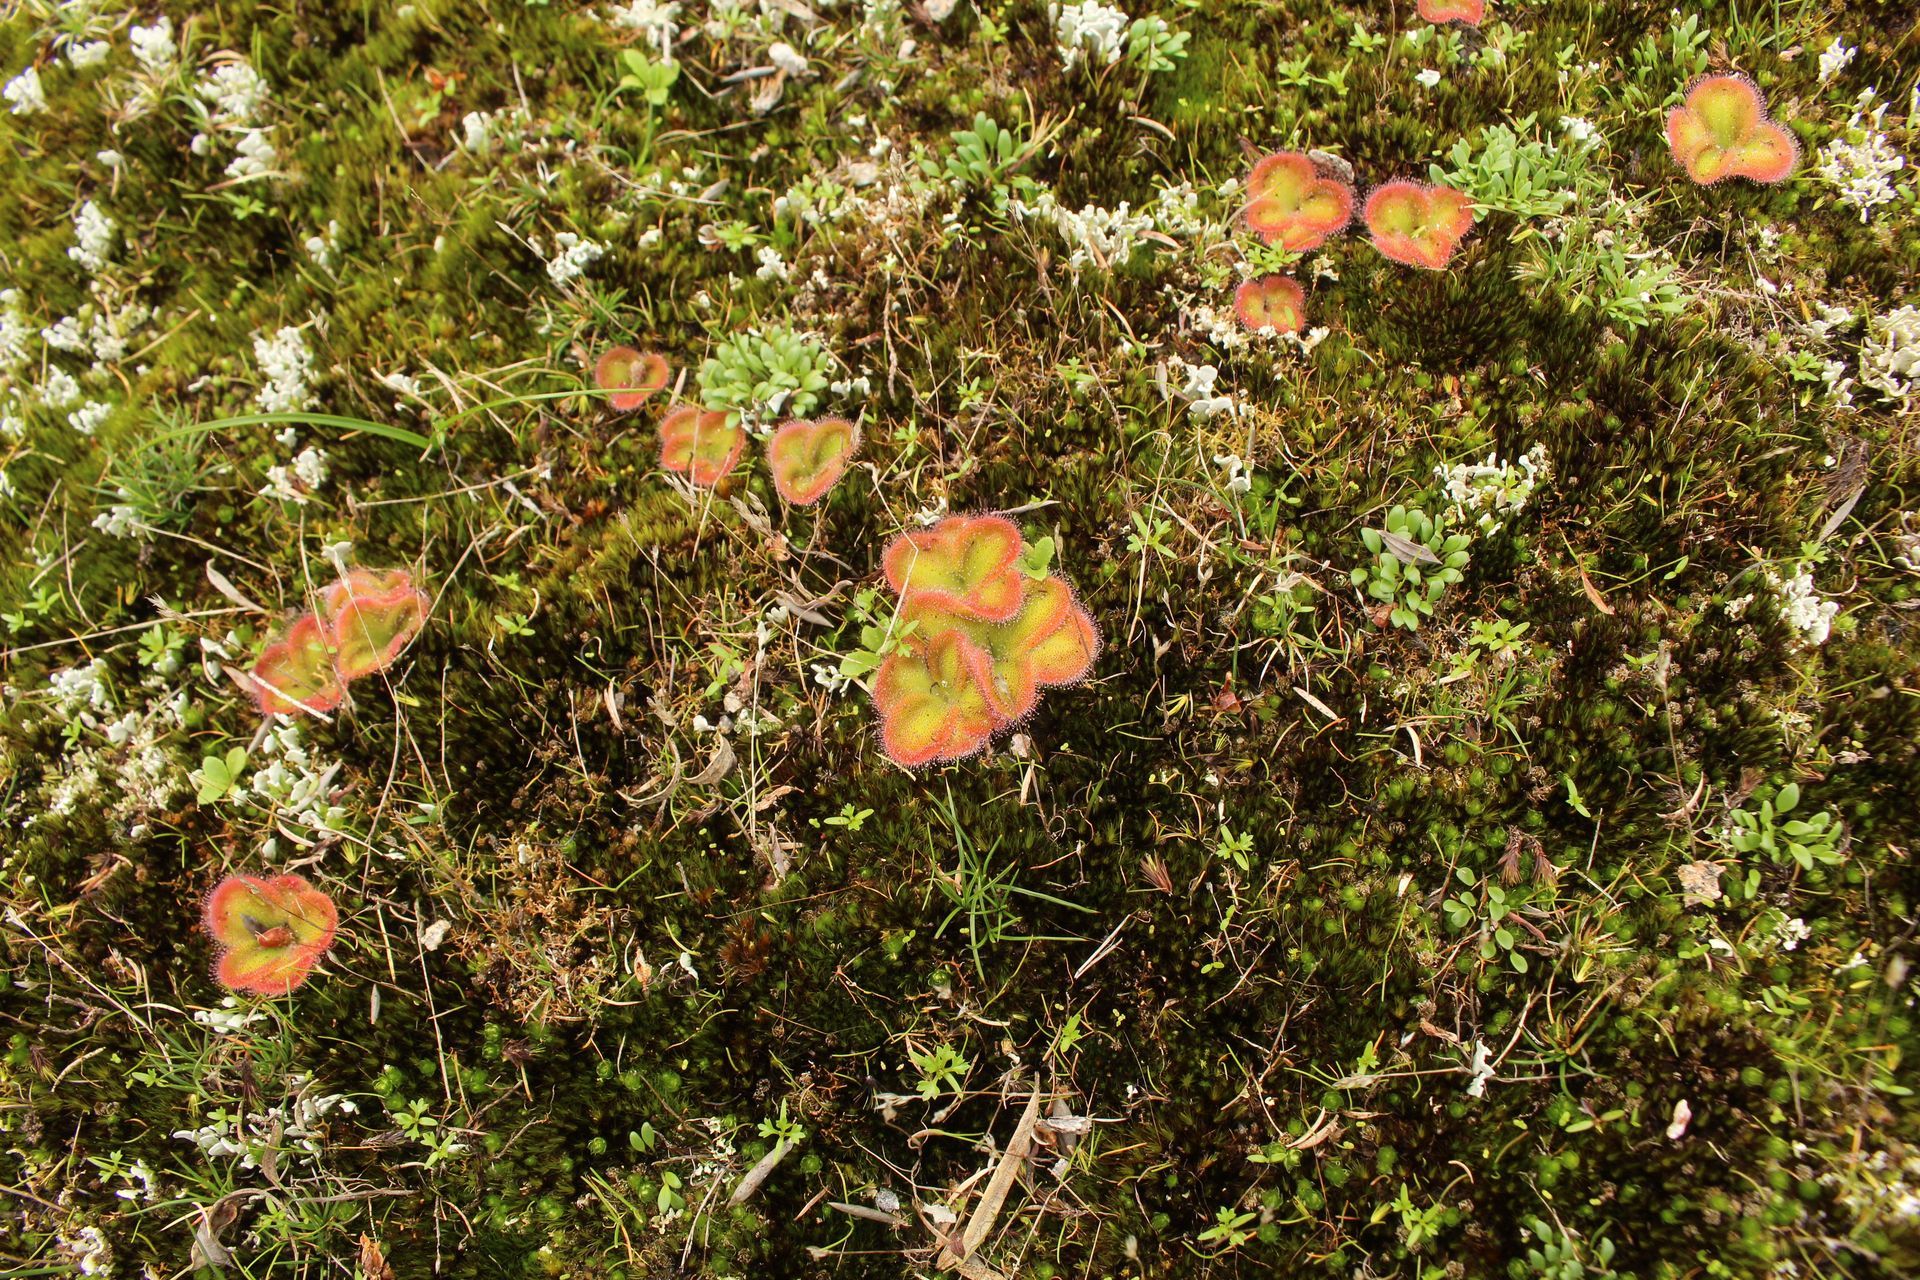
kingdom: Plantae
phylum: Tracheophyta
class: Magnoliopsida
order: Caryophyllales
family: Droseraceae
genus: Drosera
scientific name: Drosera erythrorhiza
